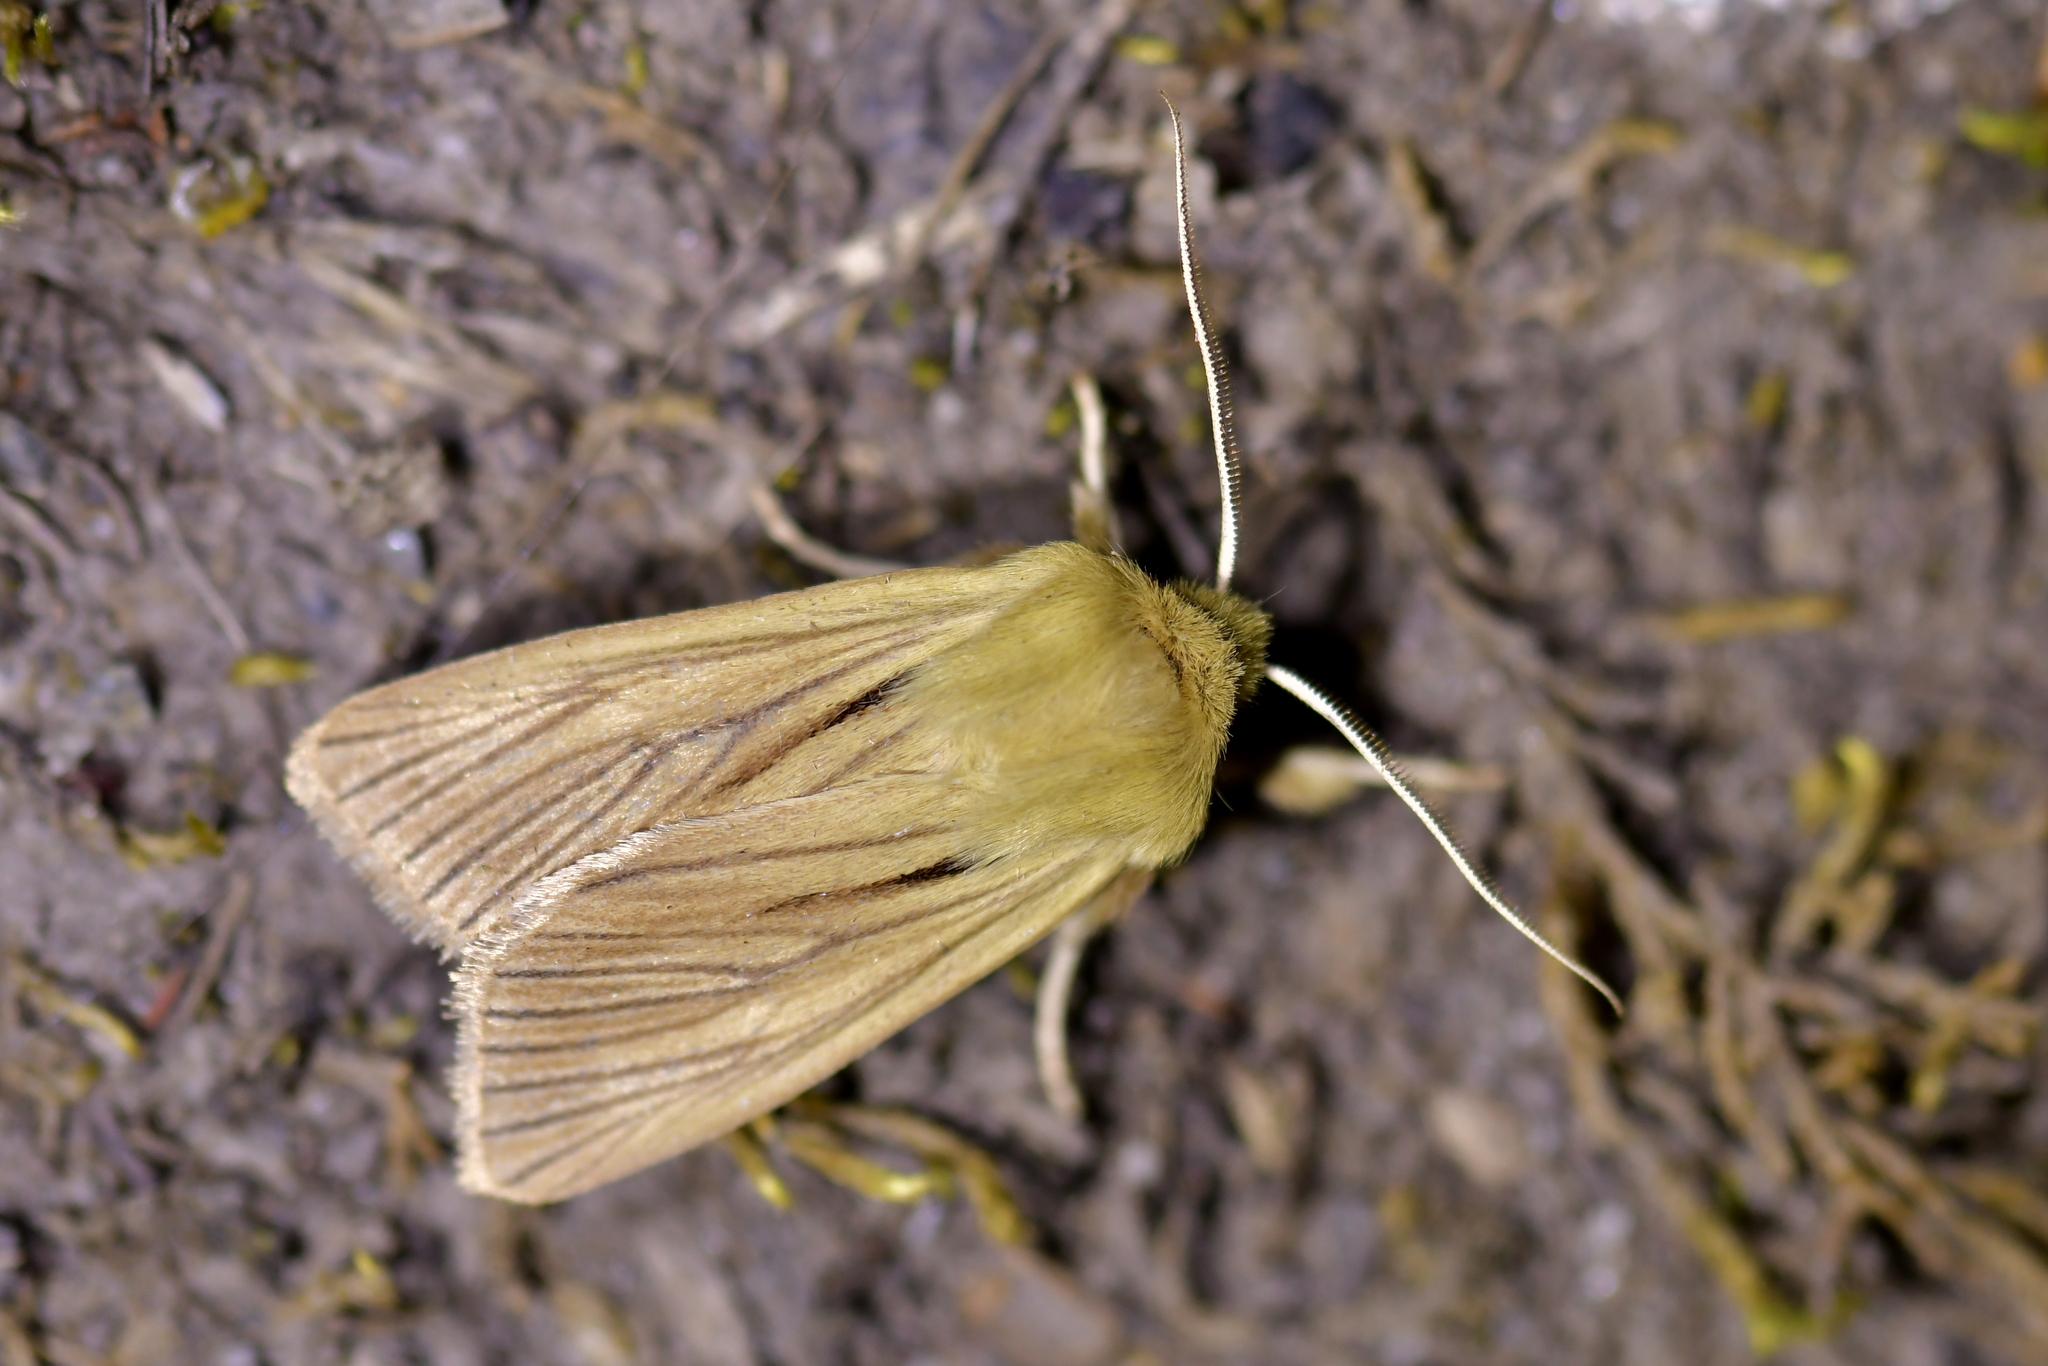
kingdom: Animalia
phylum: Arthropoda
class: Insecta
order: Lepidoptera
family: Noctuidae
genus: Ichneutica
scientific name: Ichneutica
